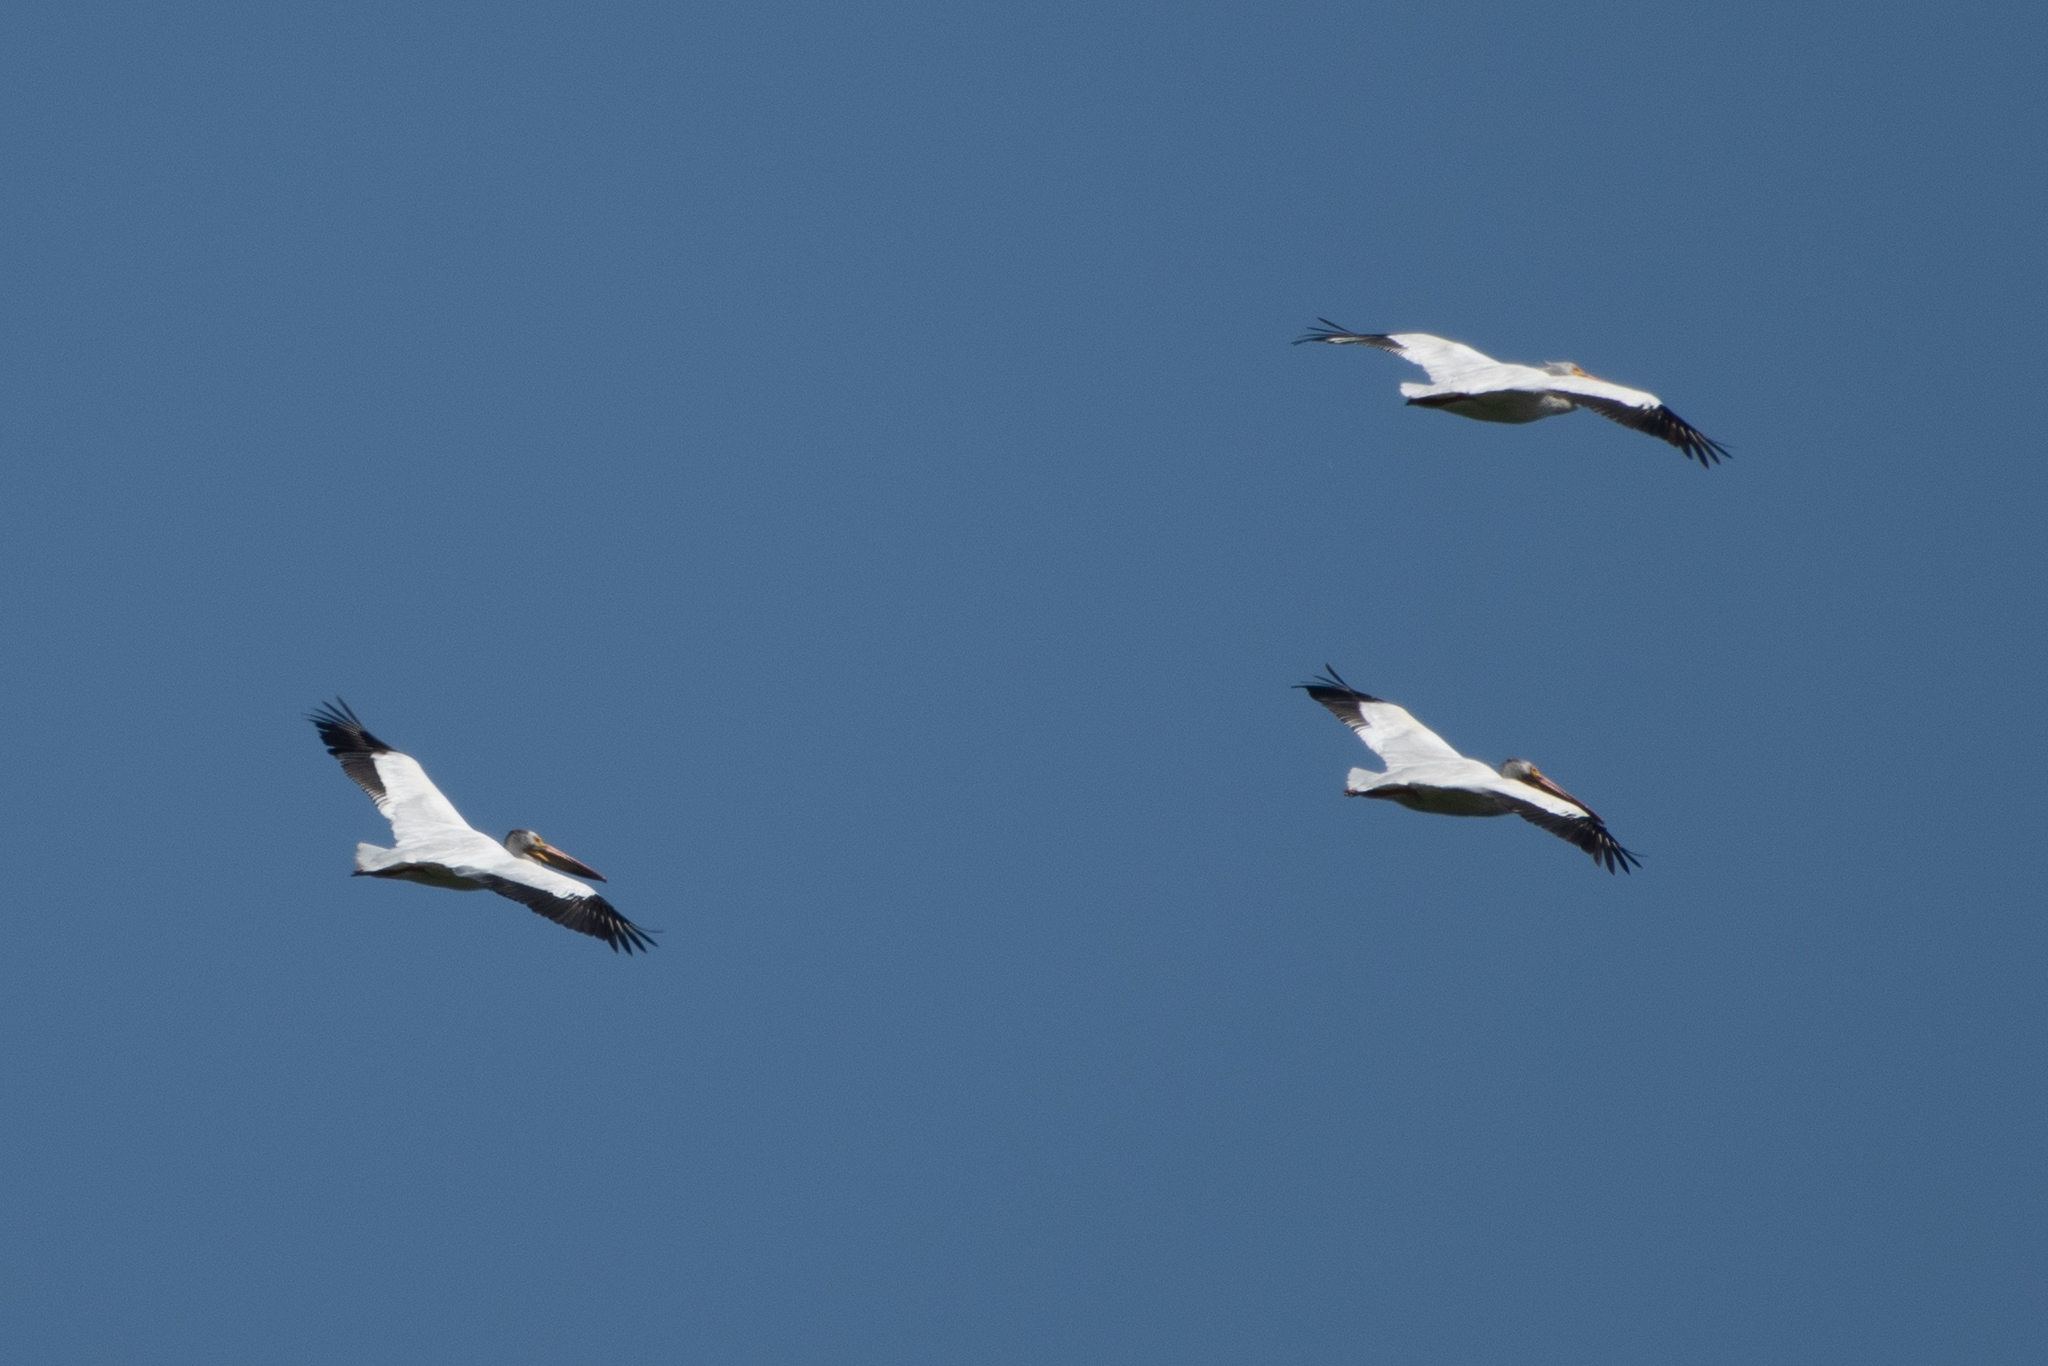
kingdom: Animalia
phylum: Chordata
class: Aves
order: Pelecaniformes
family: Pelecanidae
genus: Pelecanus
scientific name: Pelecanus erythrorhynchos
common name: American white pelican
